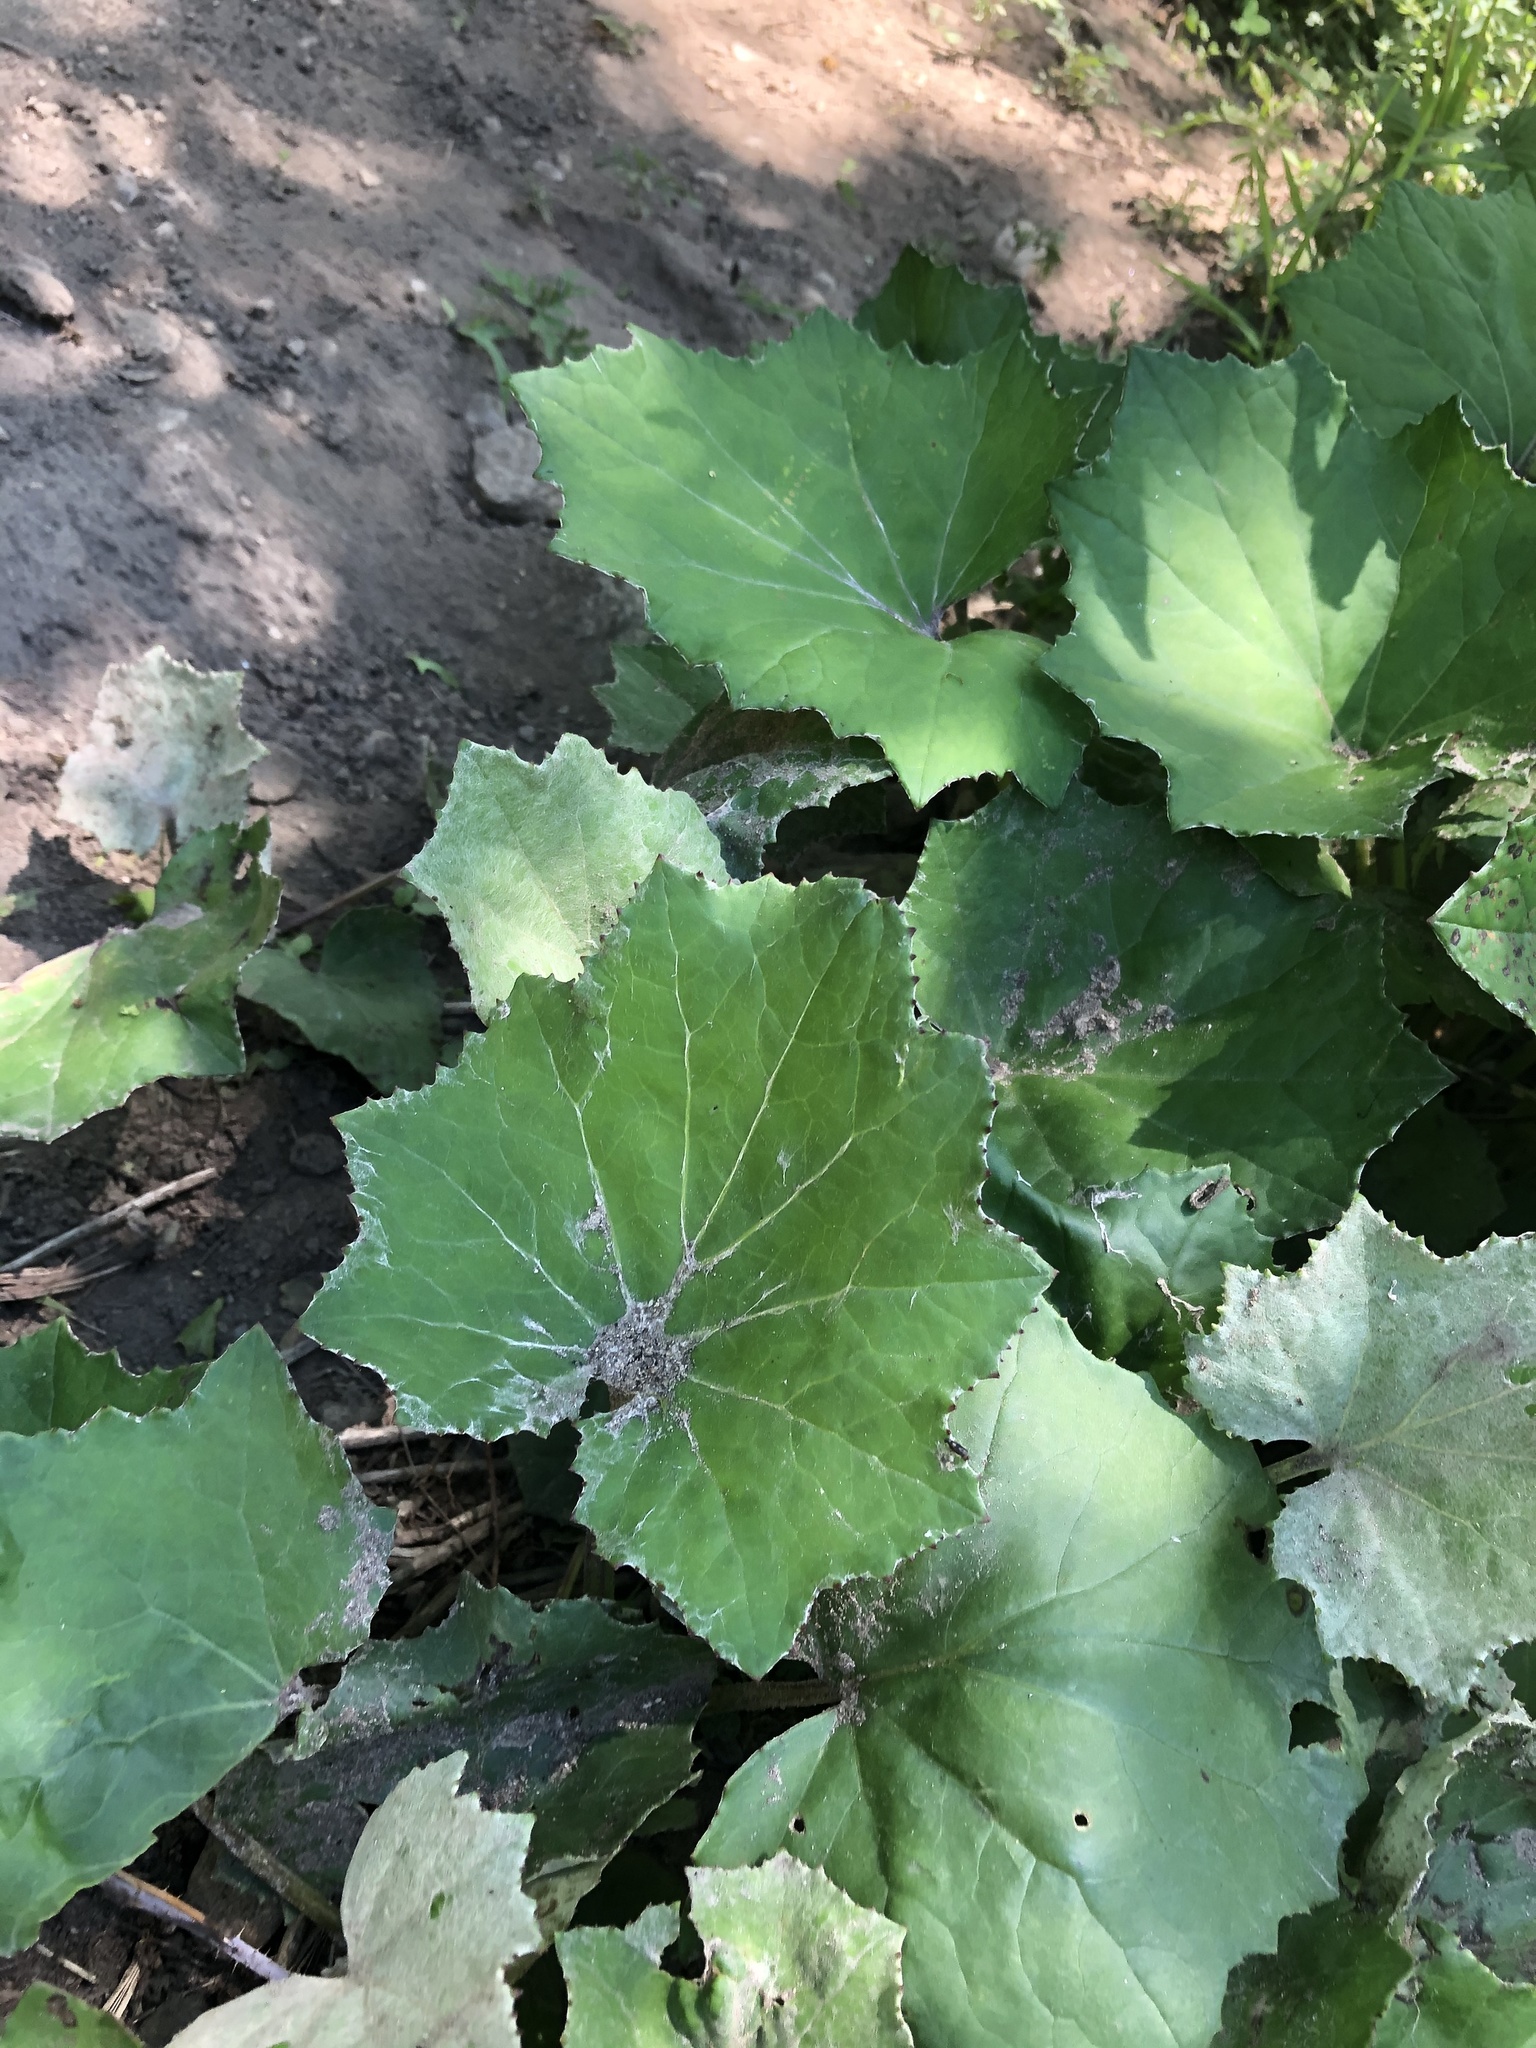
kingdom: Plantae
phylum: Tracheophyta
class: Magnoliopsida
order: Asterales
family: Asteraceae
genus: Tussilago
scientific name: Tussilago farfara
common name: Coltsfoot
